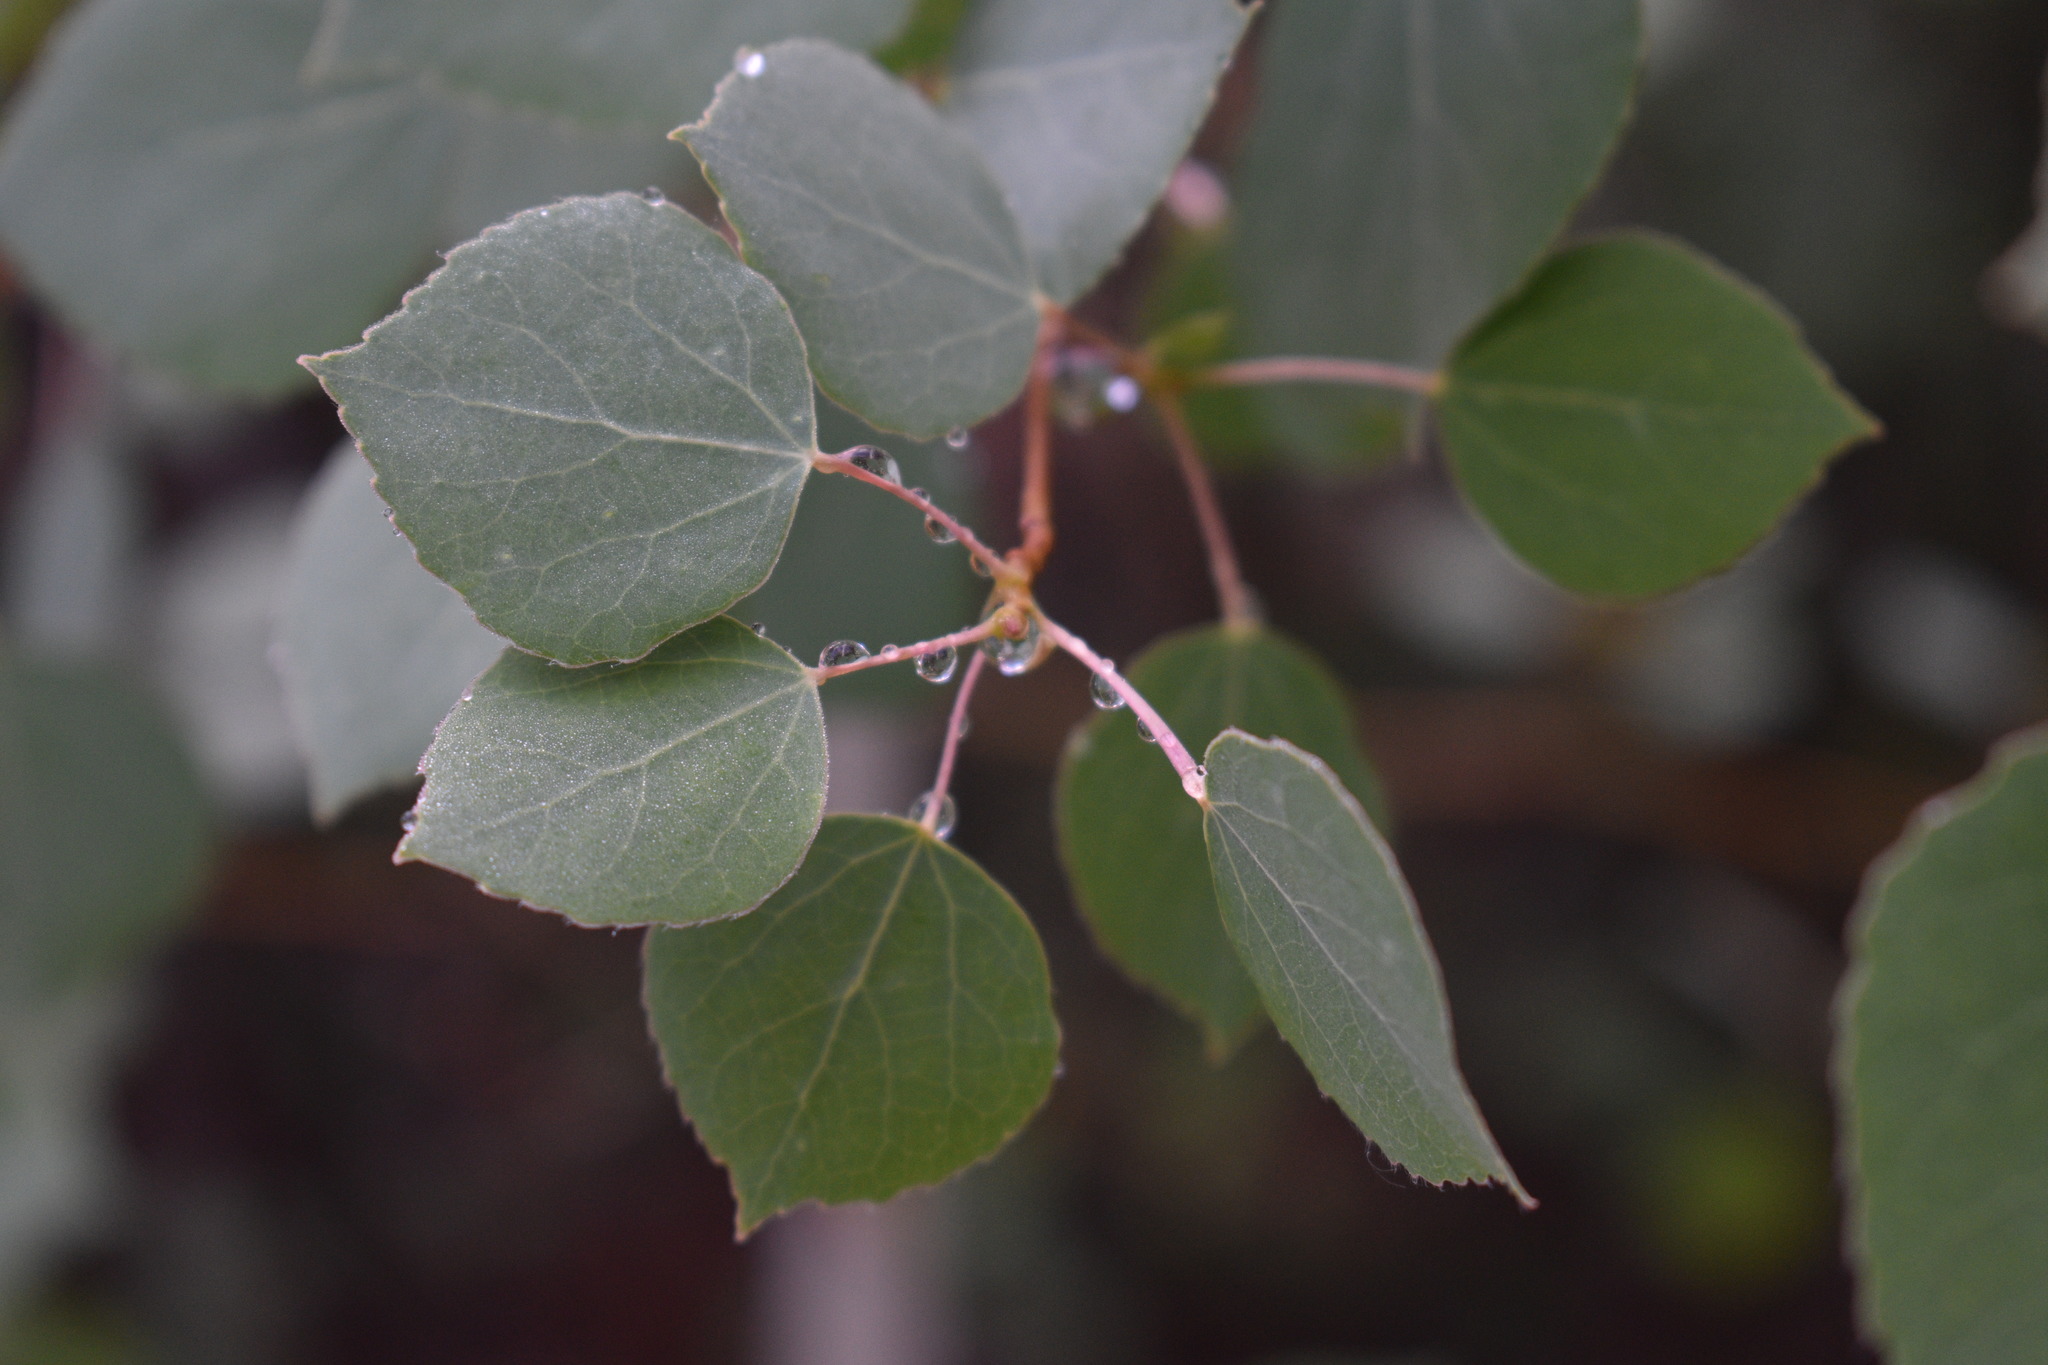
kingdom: Plantae
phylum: Tracheophyta
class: Magnoliopsida
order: Malpighiales
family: Salicaceae
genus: Populus
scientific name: Populus tremuloides
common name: Quaking aspen
